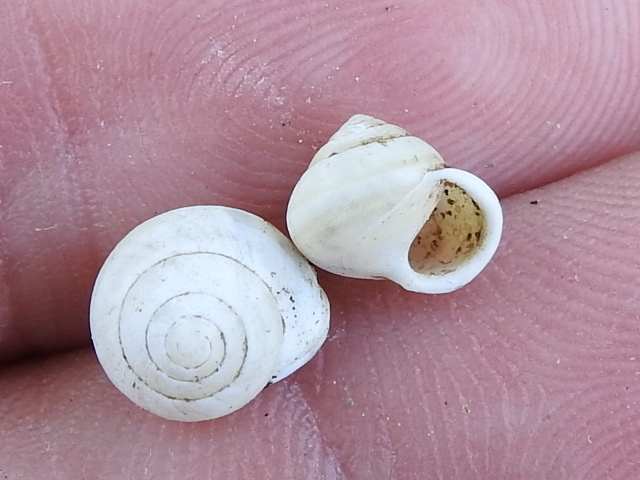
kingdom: Animalia
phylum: Mollusca
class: Gastropoda
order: Cycloneritida
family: Helicinidae
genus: Helicina
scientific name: Helicina orbiculata
